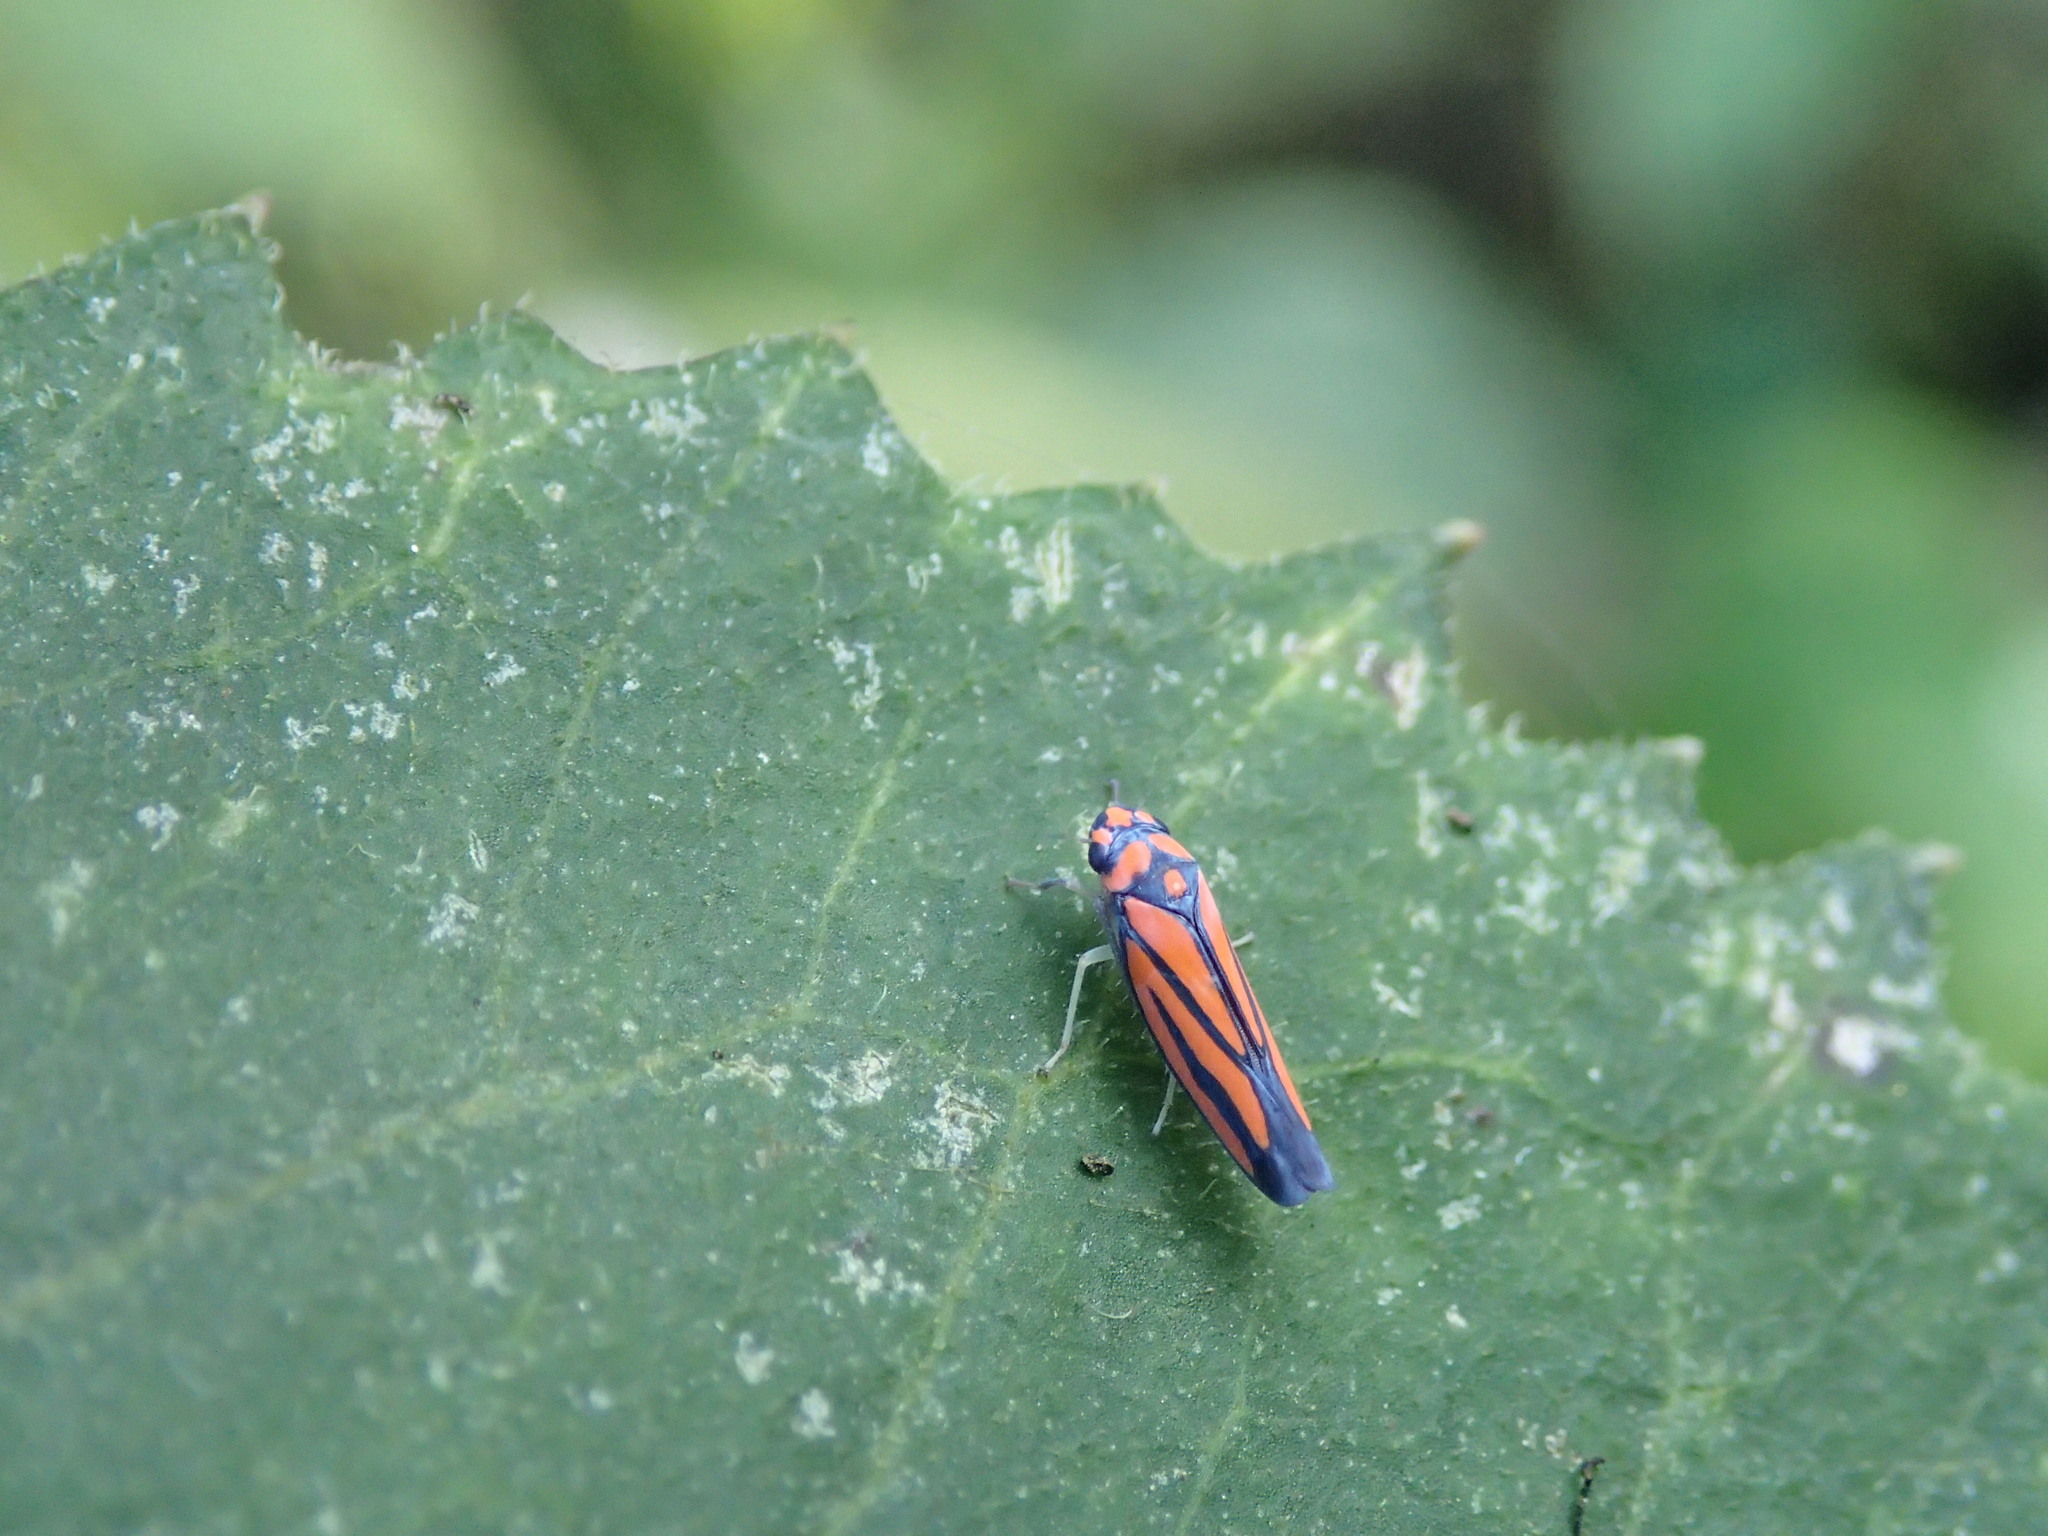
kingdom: Animalia
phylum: Arthropoda
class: Insecta
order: Hemiptera
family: Cicadellidae
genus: Atkinsoniella
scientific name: Atkinsoniella opponens
